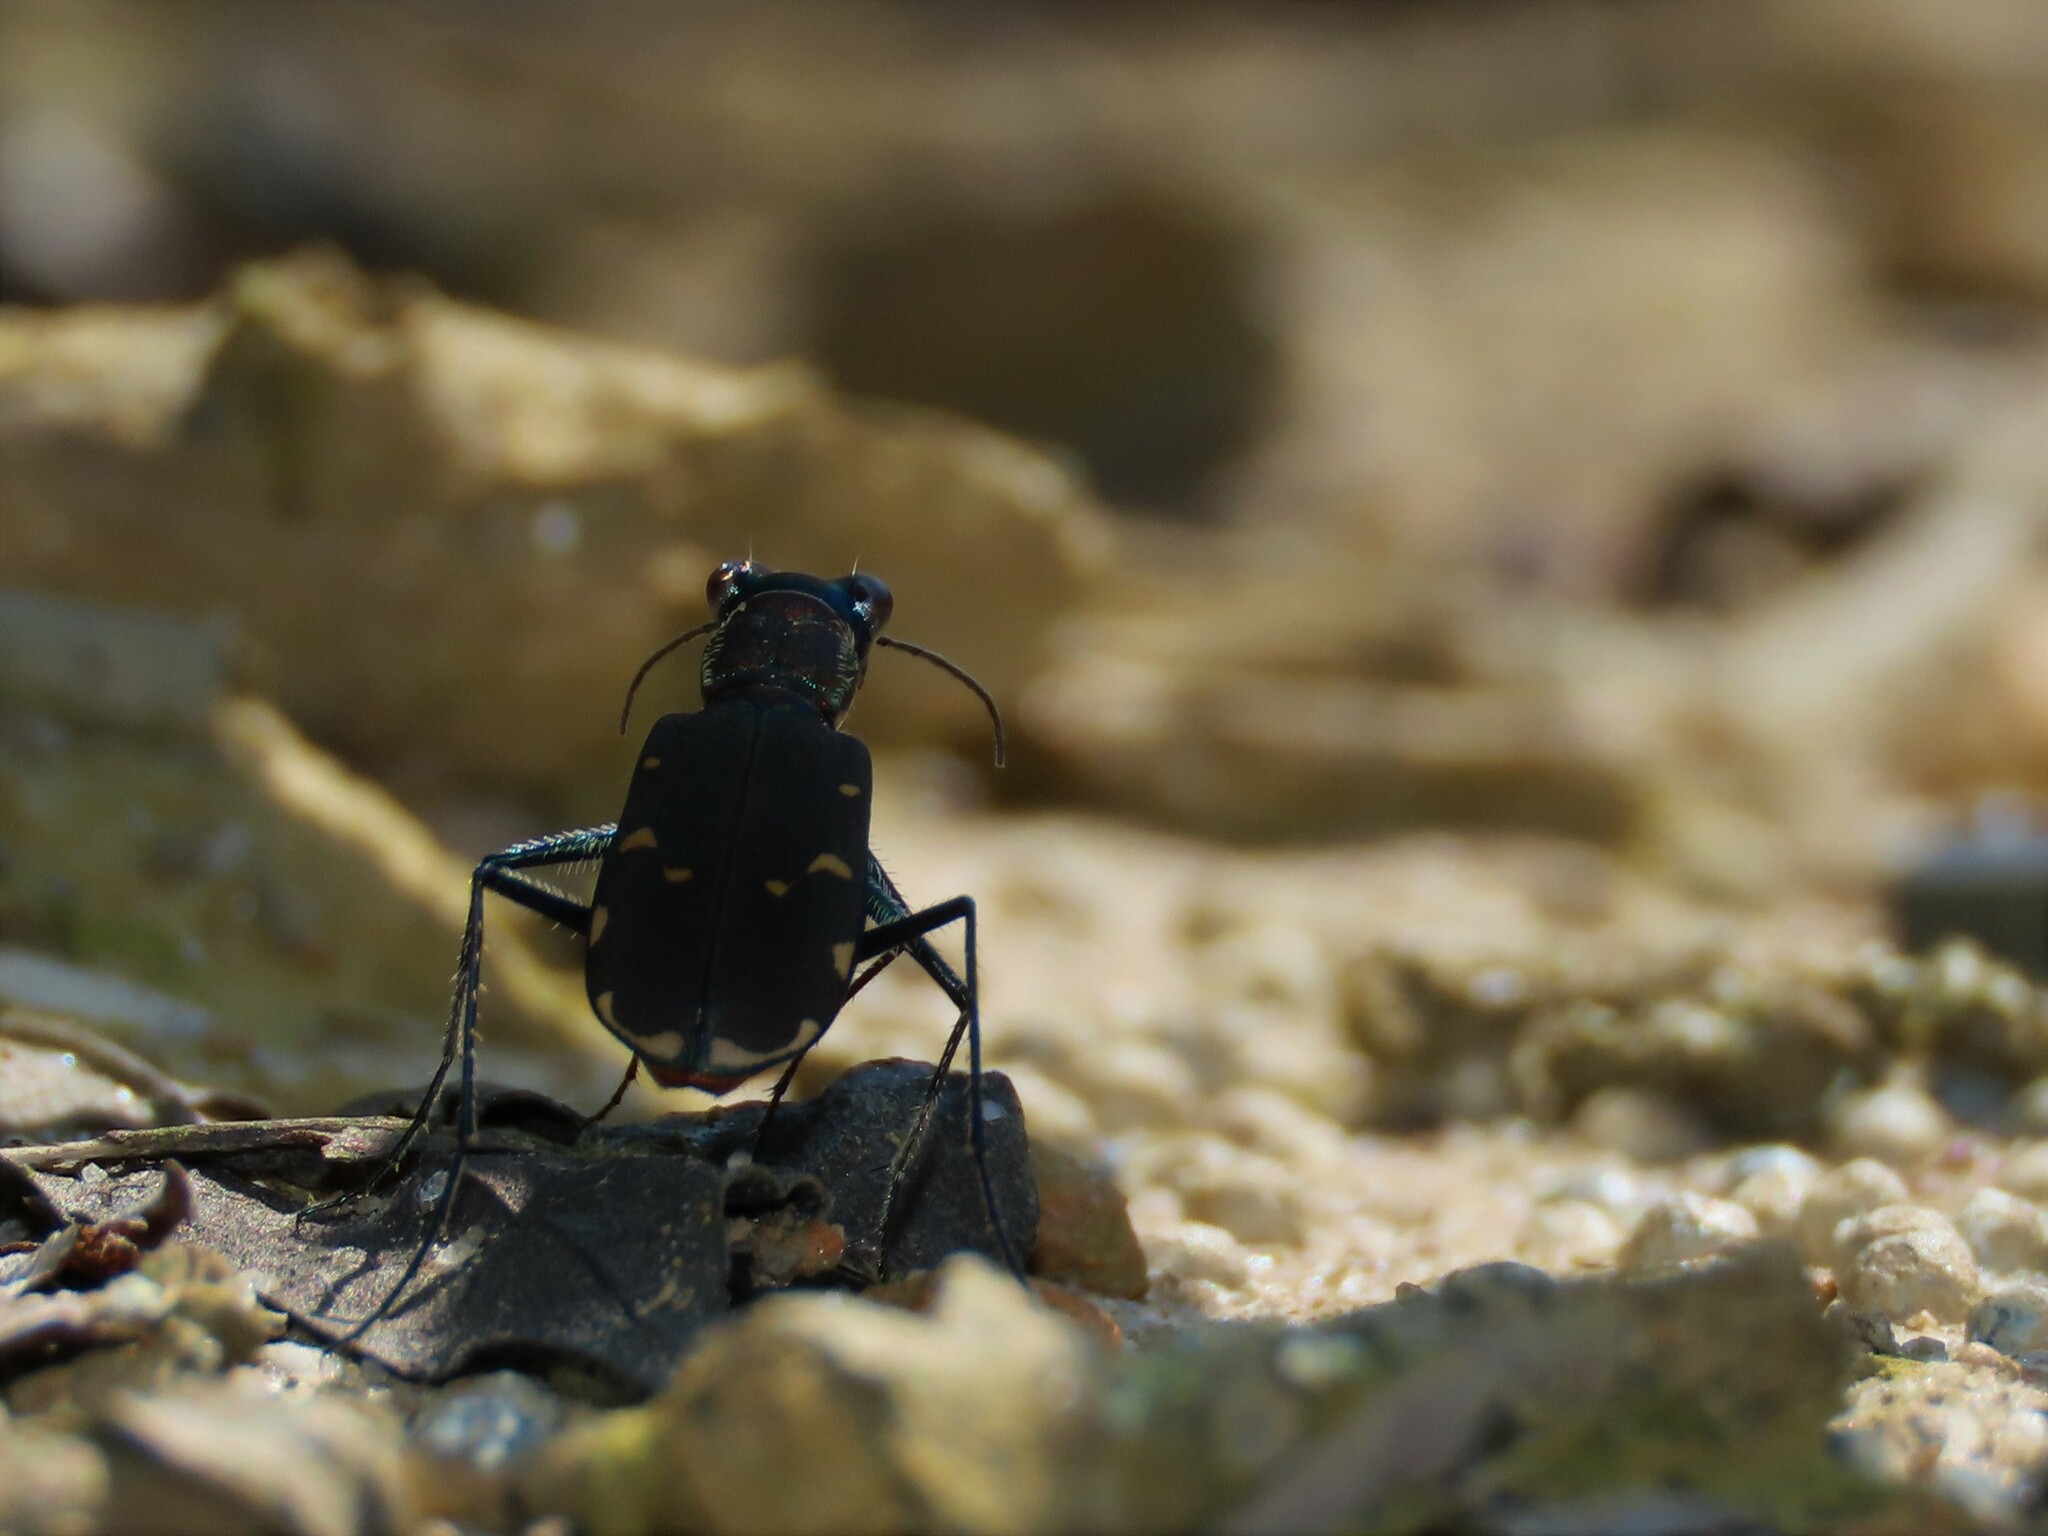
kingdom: Animalia
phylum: Arthropoda
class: Insecta
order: Coleoptera
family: Carabidae
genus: Cicindela
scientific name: Cicindela rufiventris
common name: Eastern red-bellied tiger beetle
